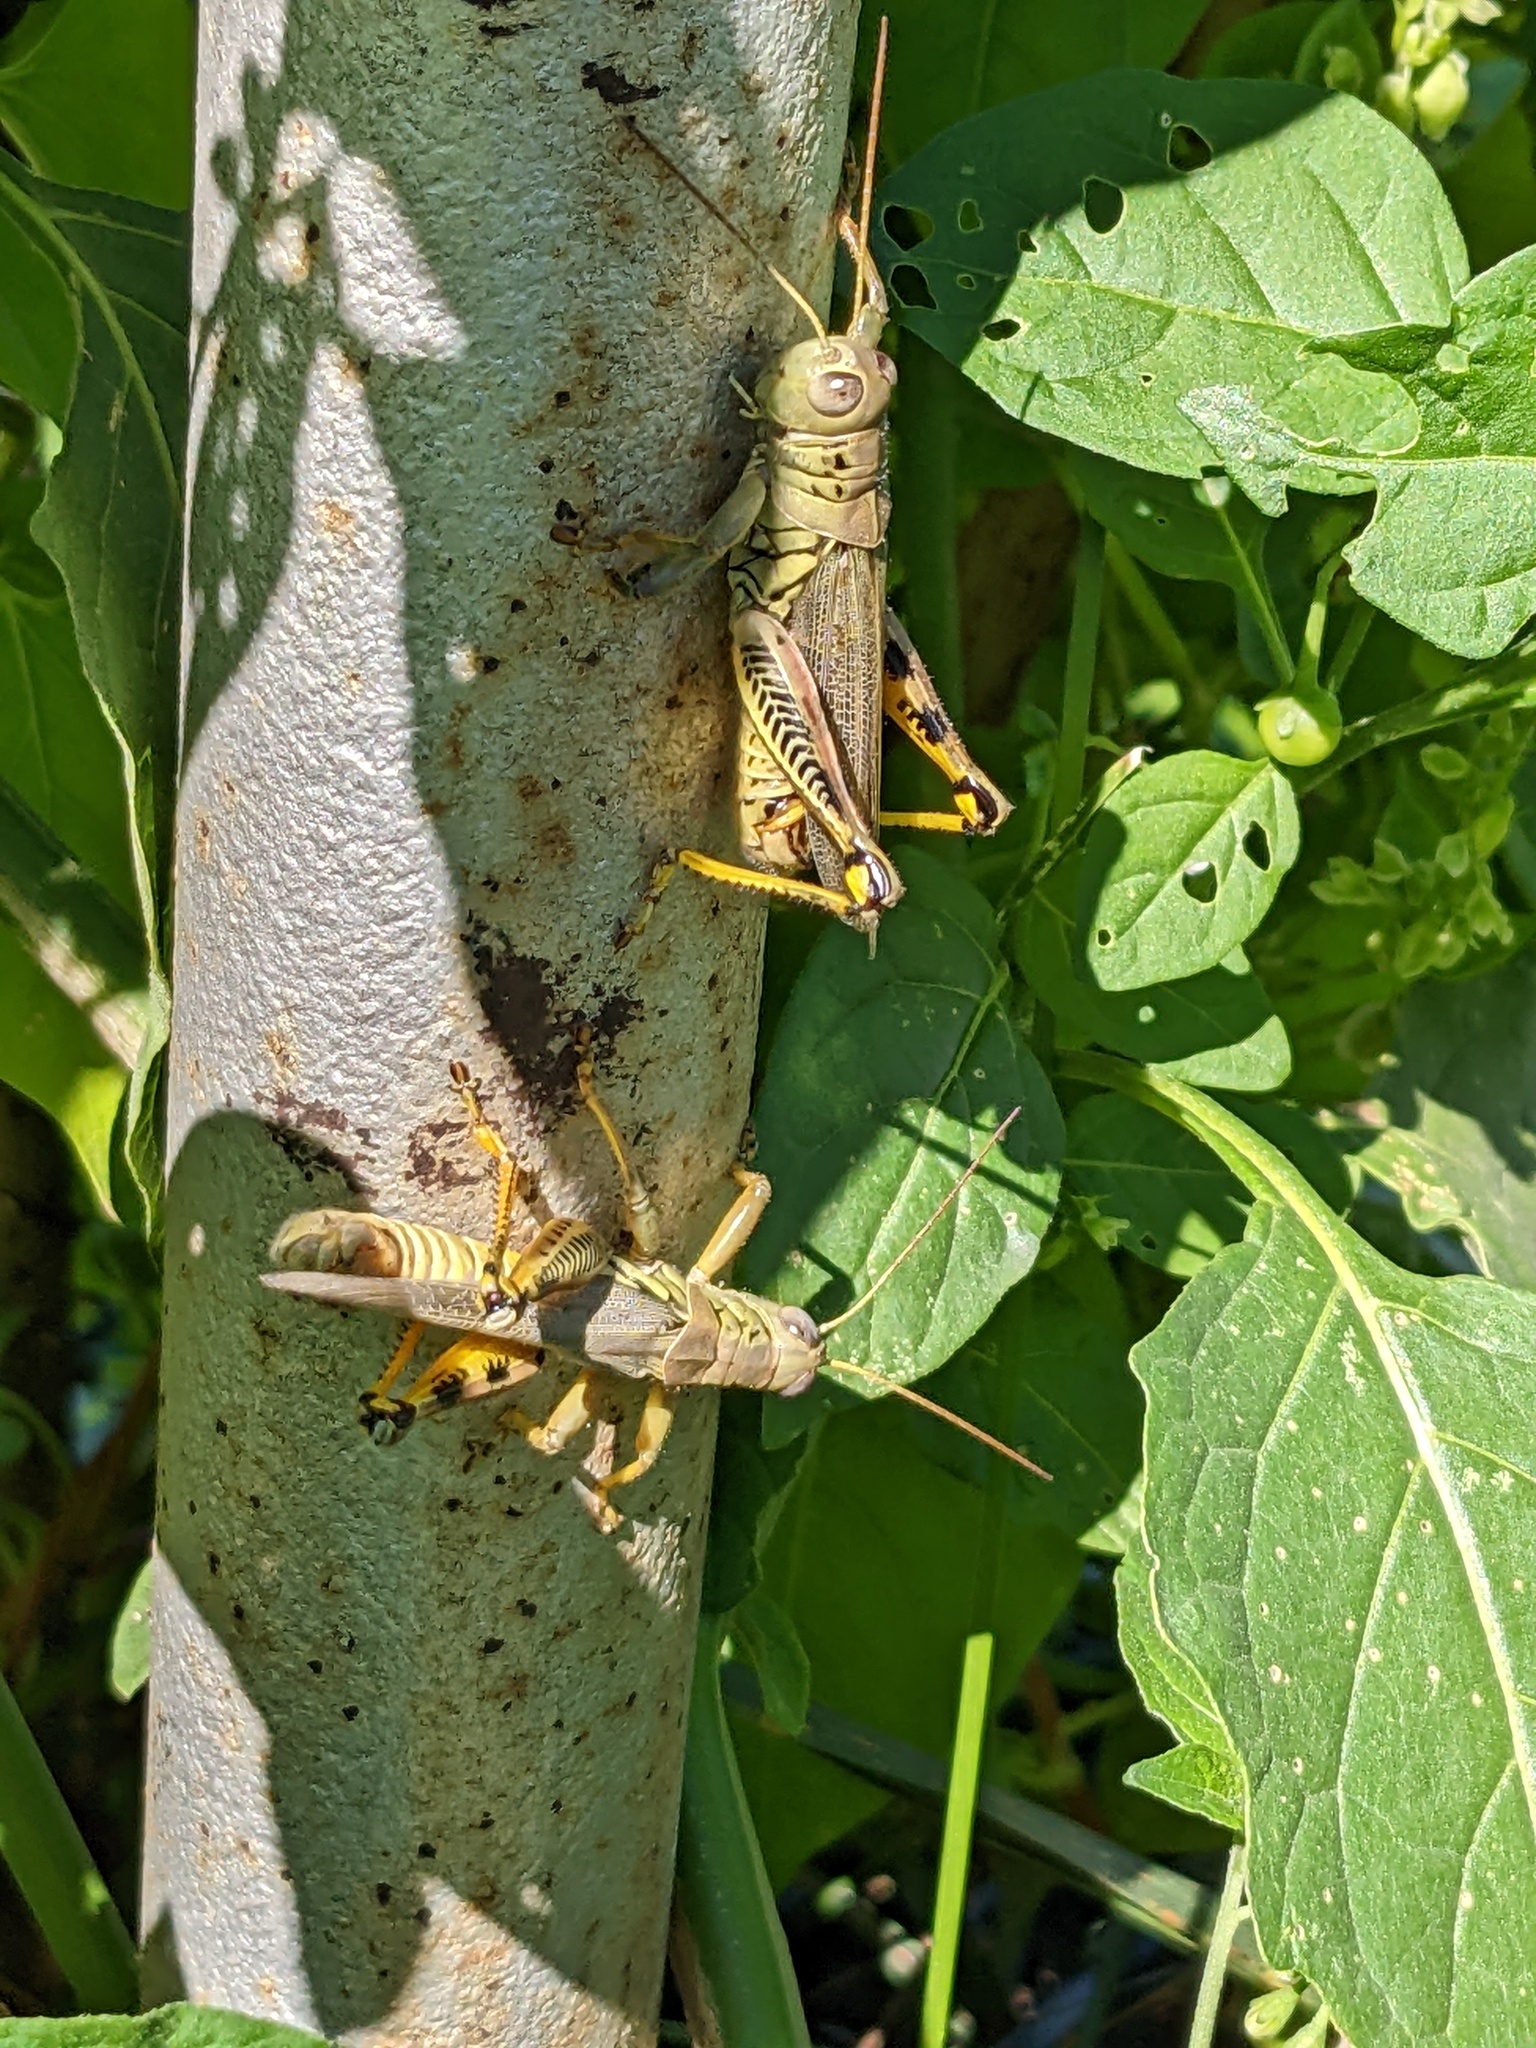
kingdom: Animalia
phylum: Arthropoda
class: Insecta
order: Orthoptera
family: Acrididae
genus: Melanoplus
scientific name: Melanoplus differentialis
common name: Differential grasshopper
